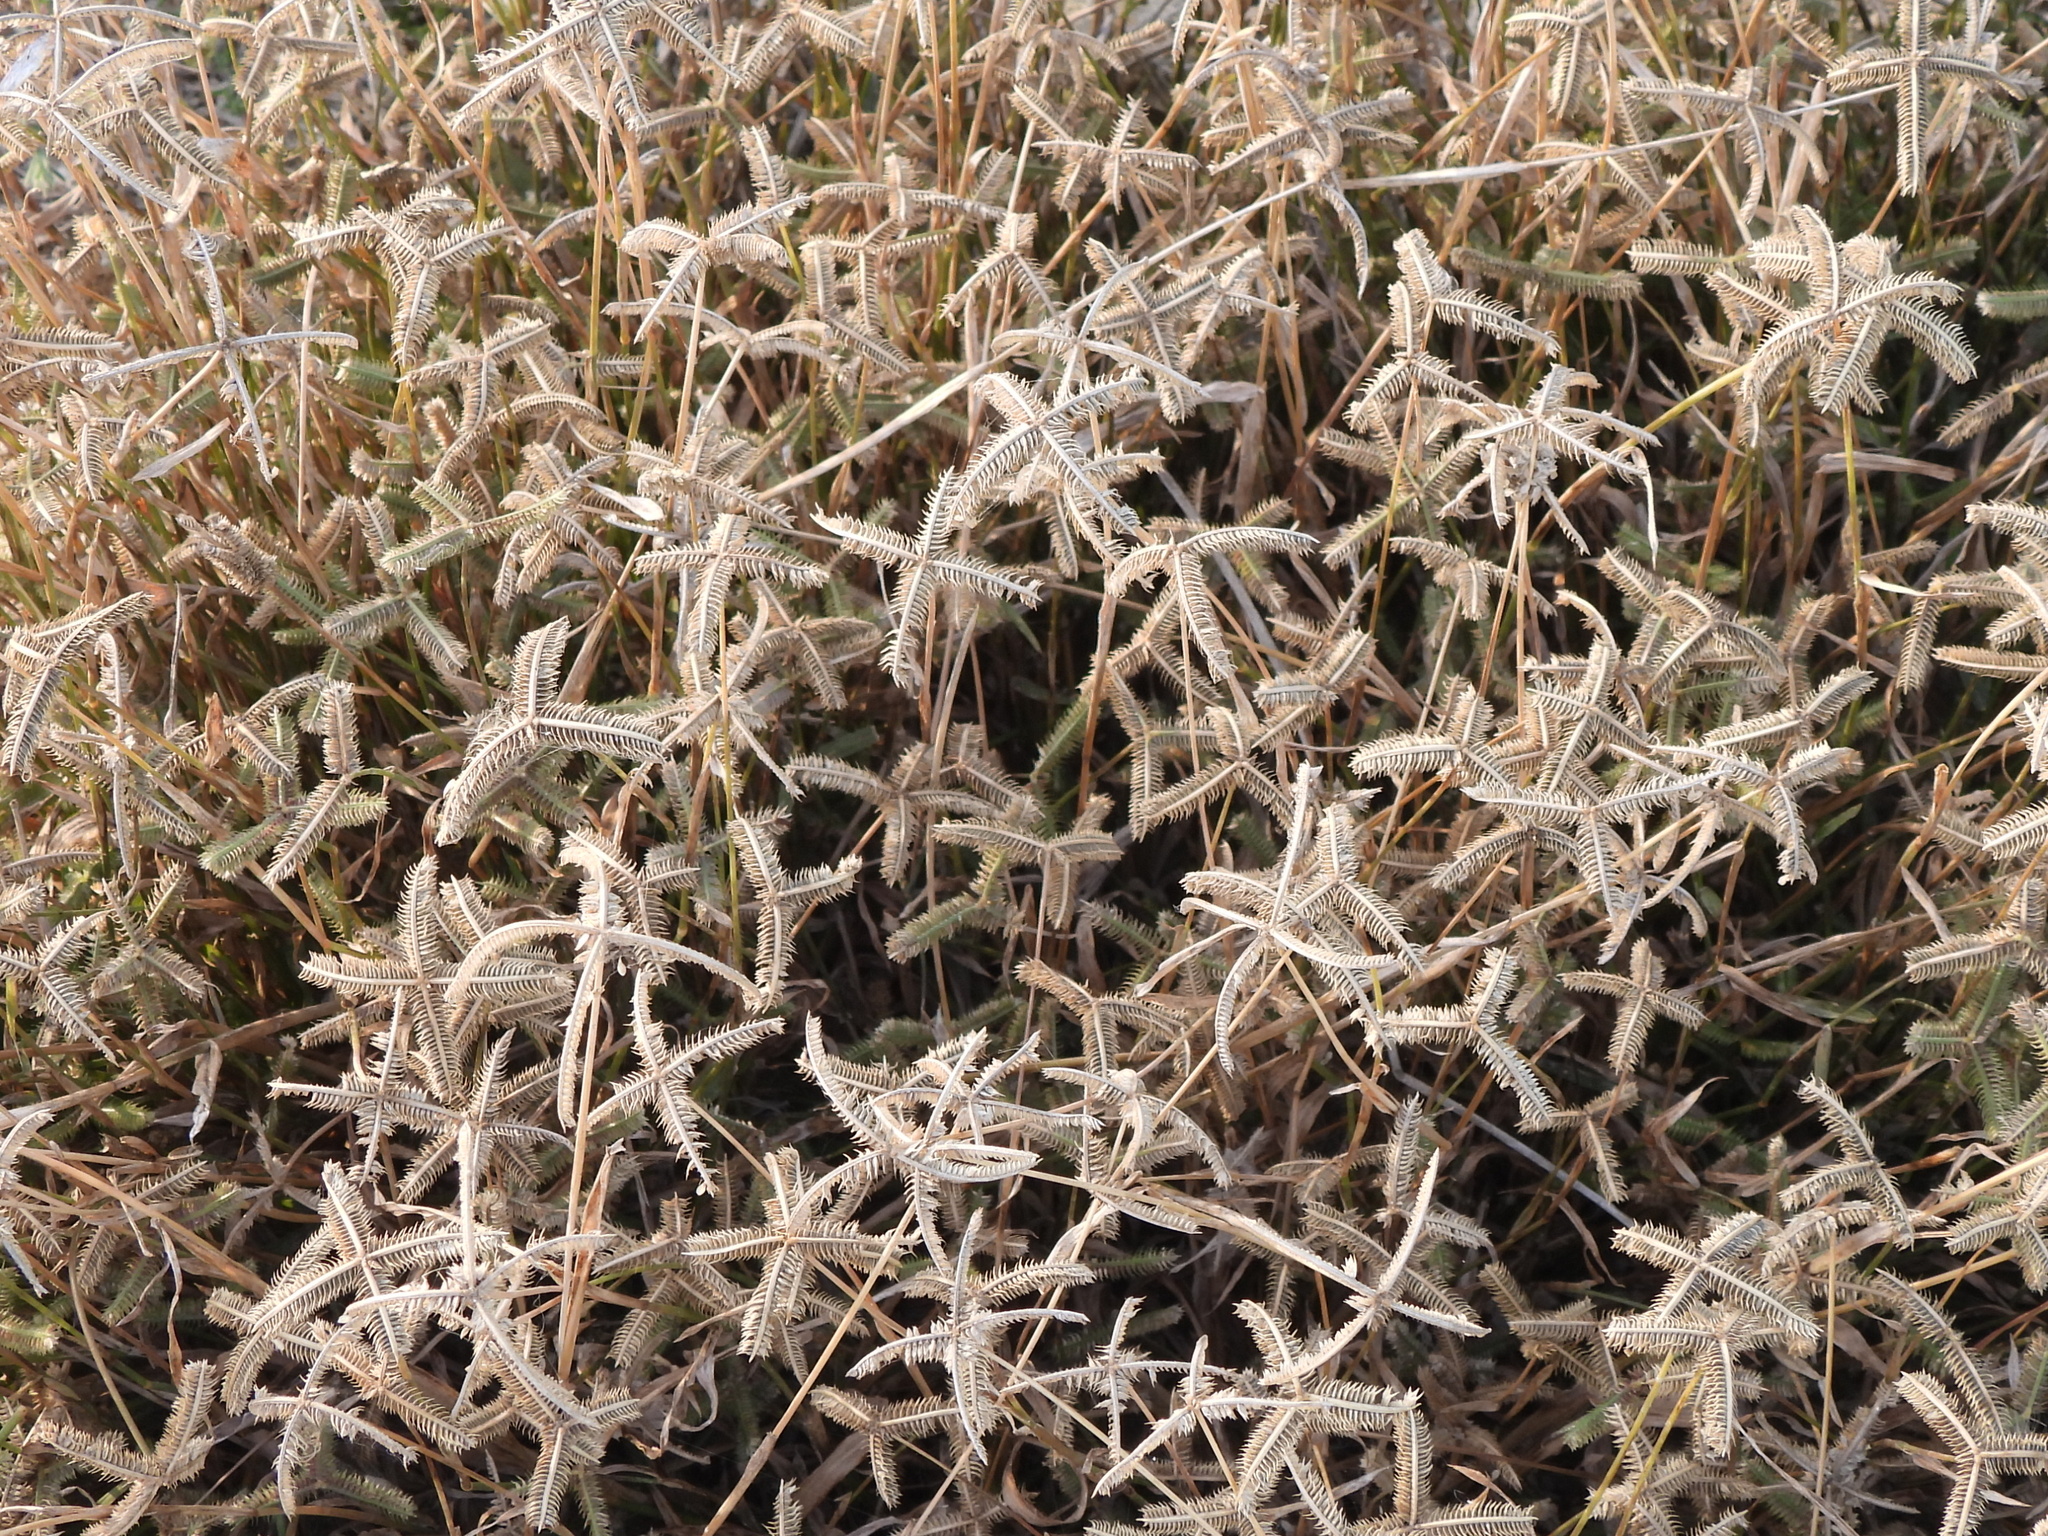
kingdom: Plantae
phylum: Tracheophyta
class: Liliopsida
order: Poales
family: Poaceae
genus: Dactyloctenium
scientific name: Dactyloctenium aegyptium
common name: Egyptian grass
